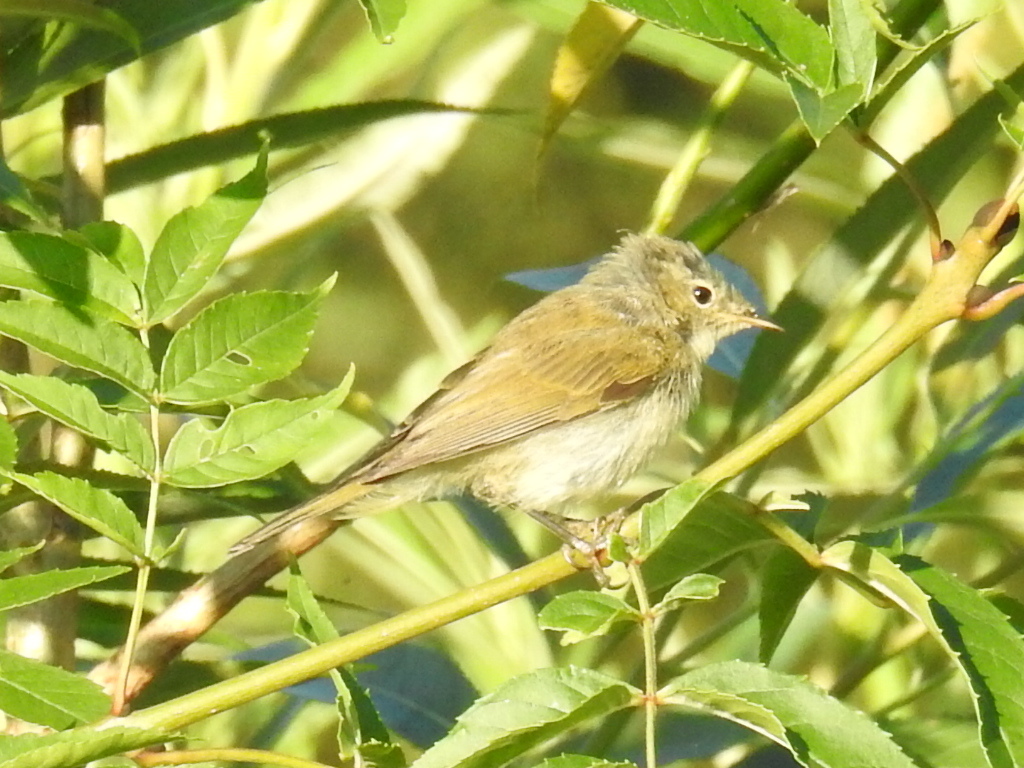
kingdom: Animalia
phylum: Chordata
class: Aves
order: Passeriformes
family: Phylloscopidae
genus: Phylloscopus
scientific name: Phylloscopus collybita
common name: Common chiffchaff
